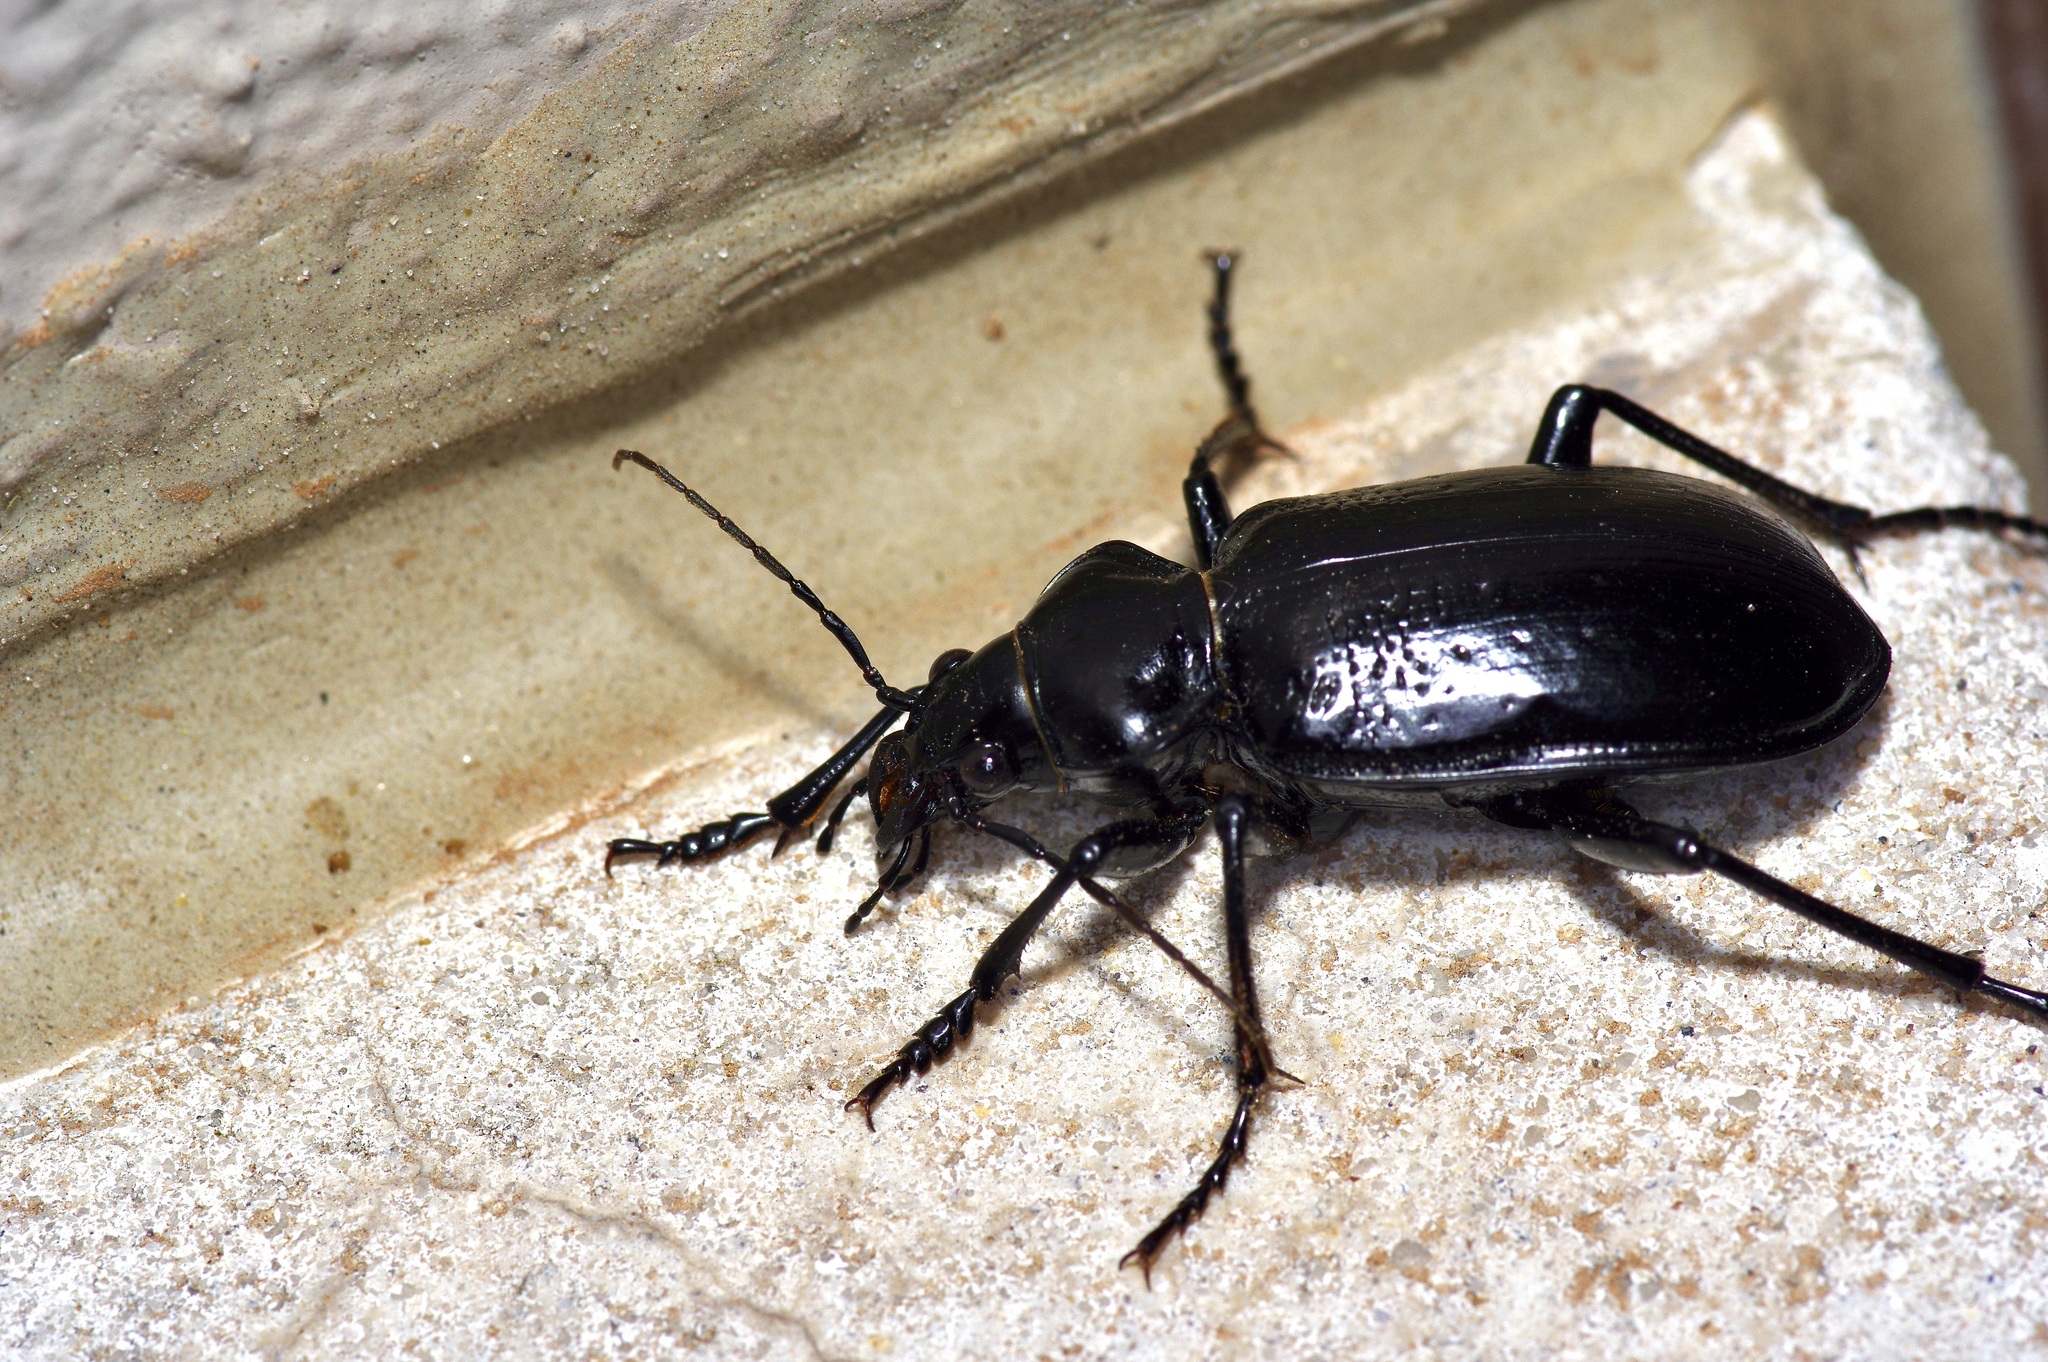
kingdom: Animalia
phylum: Arthropoda
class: Insecta
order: Coleoptera
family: Carabidae
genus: Calosoma
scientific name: Calosoma marginale
